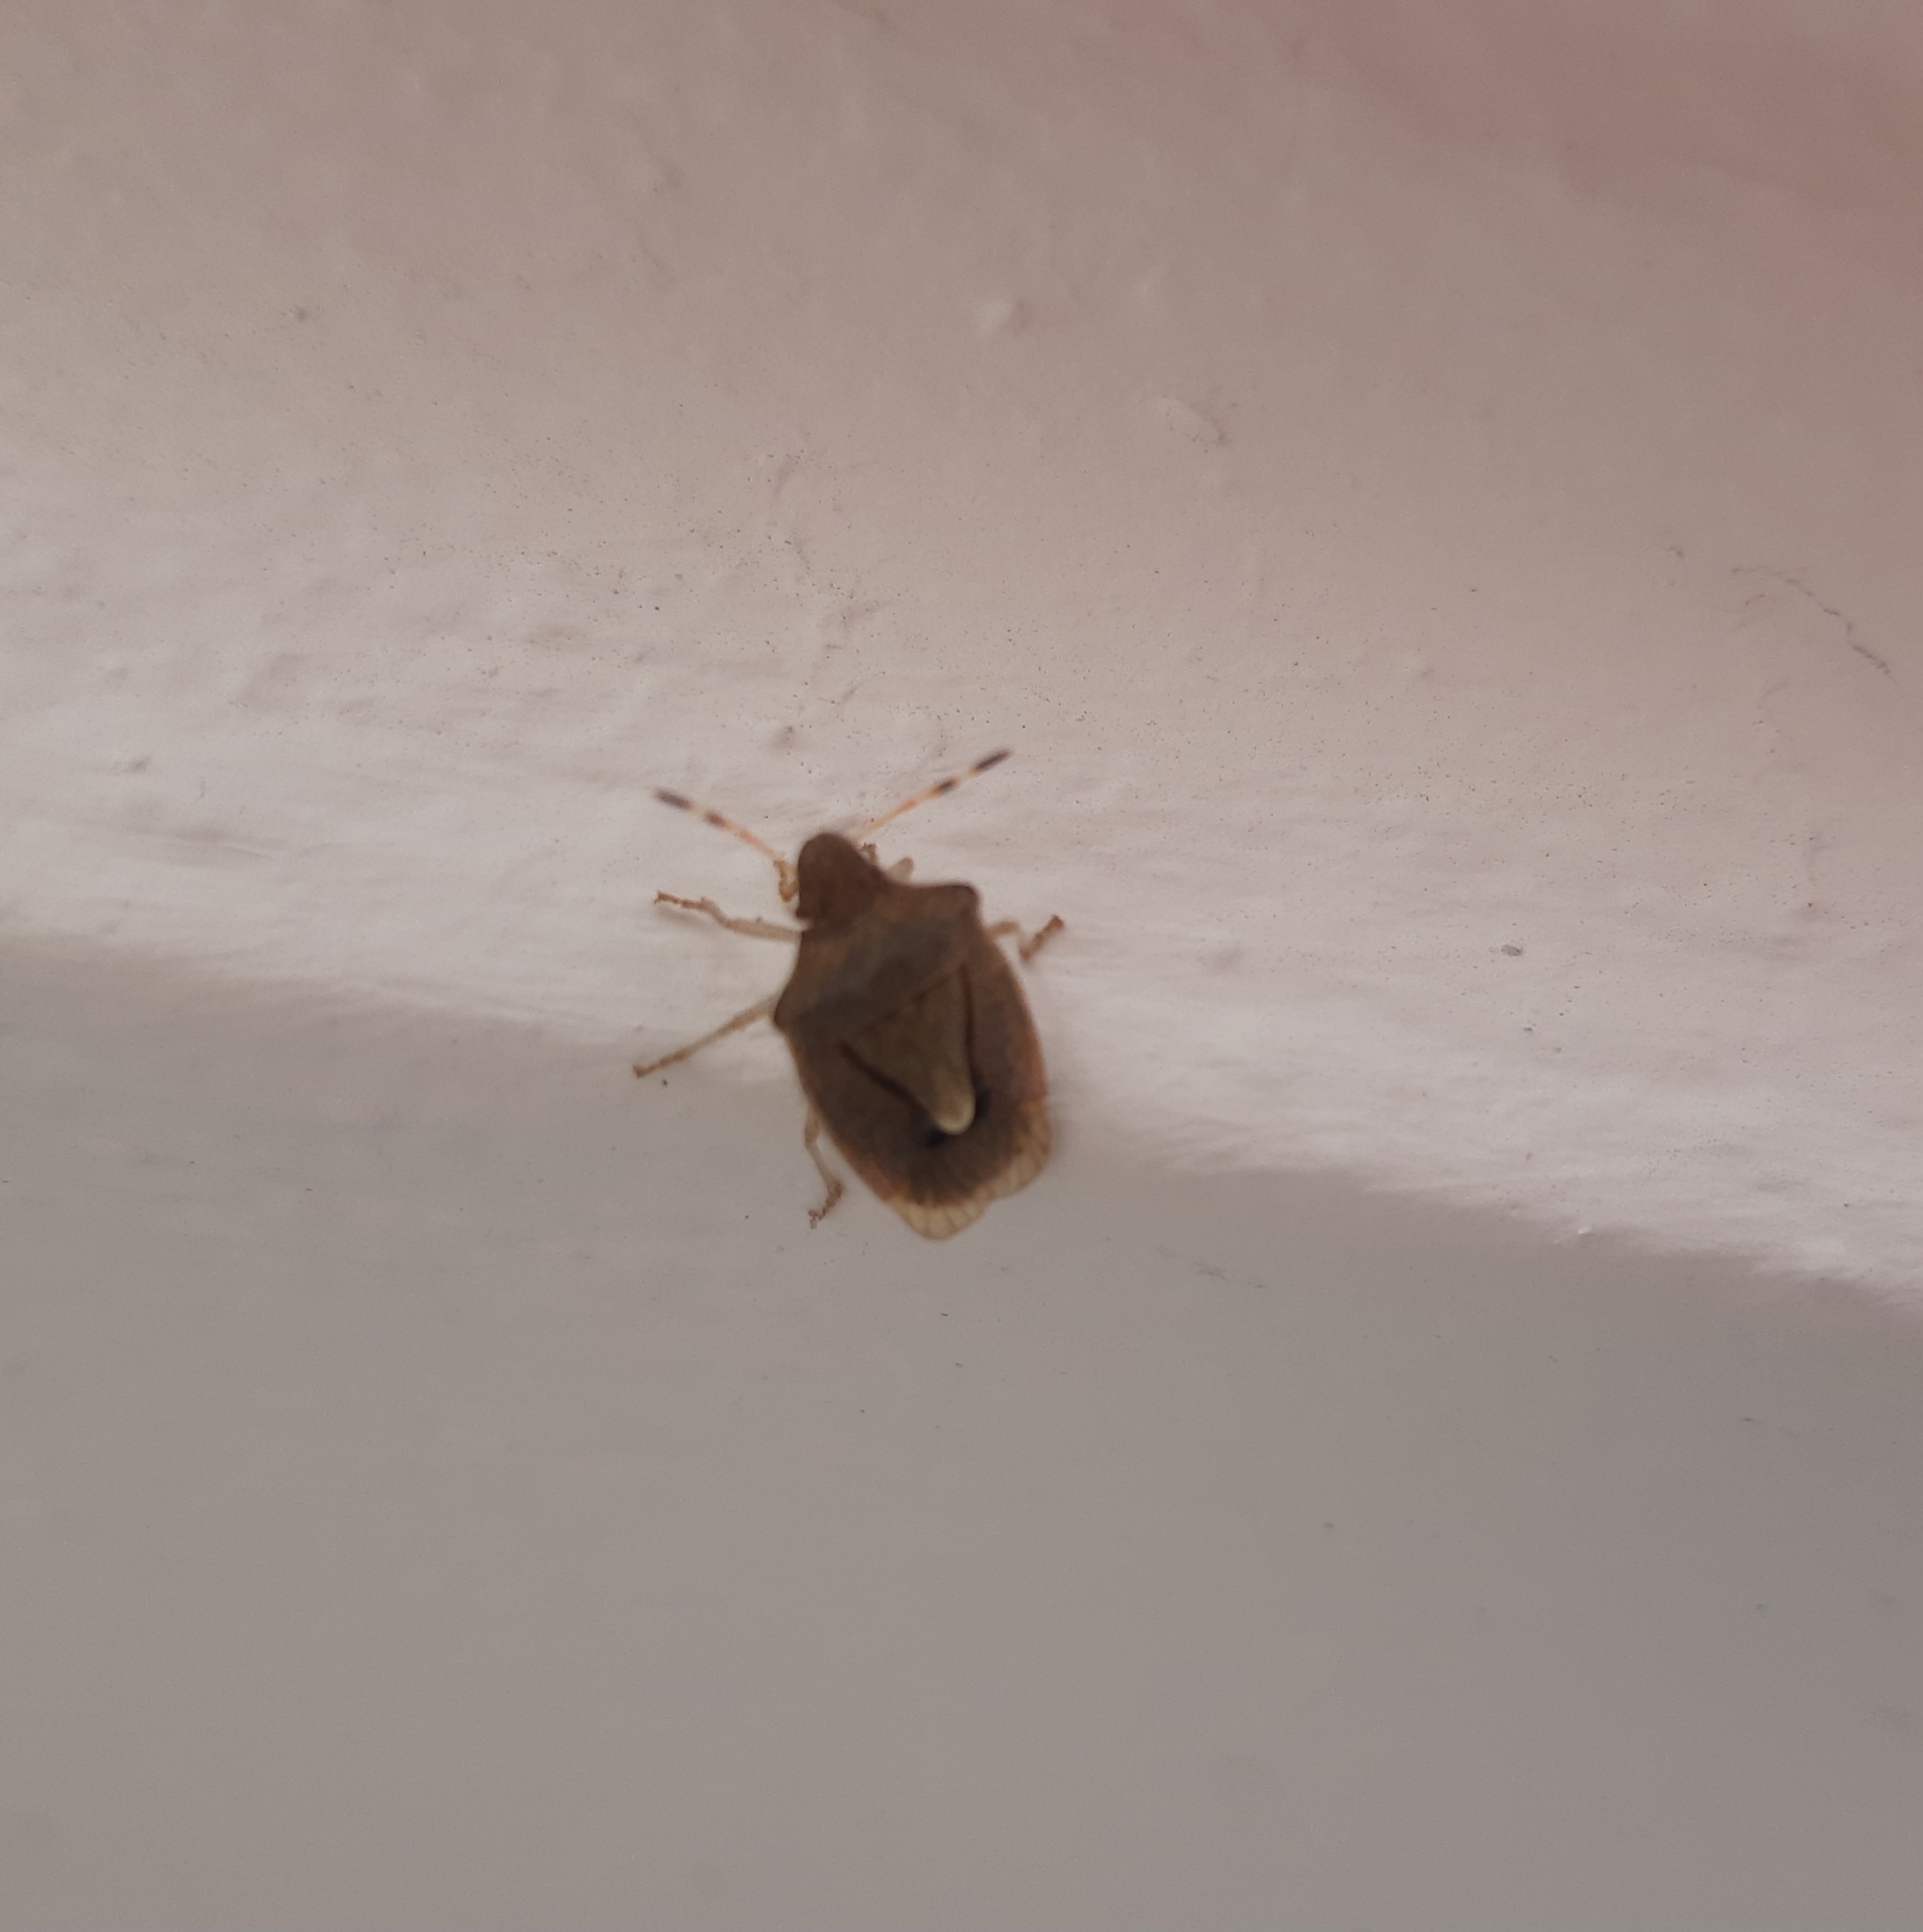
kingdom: Animalia
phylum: Arthropoda
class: Insecta
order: Hemiptera
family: Pentatomidae
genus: Holcostethus
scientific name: Holcostethus strictus
